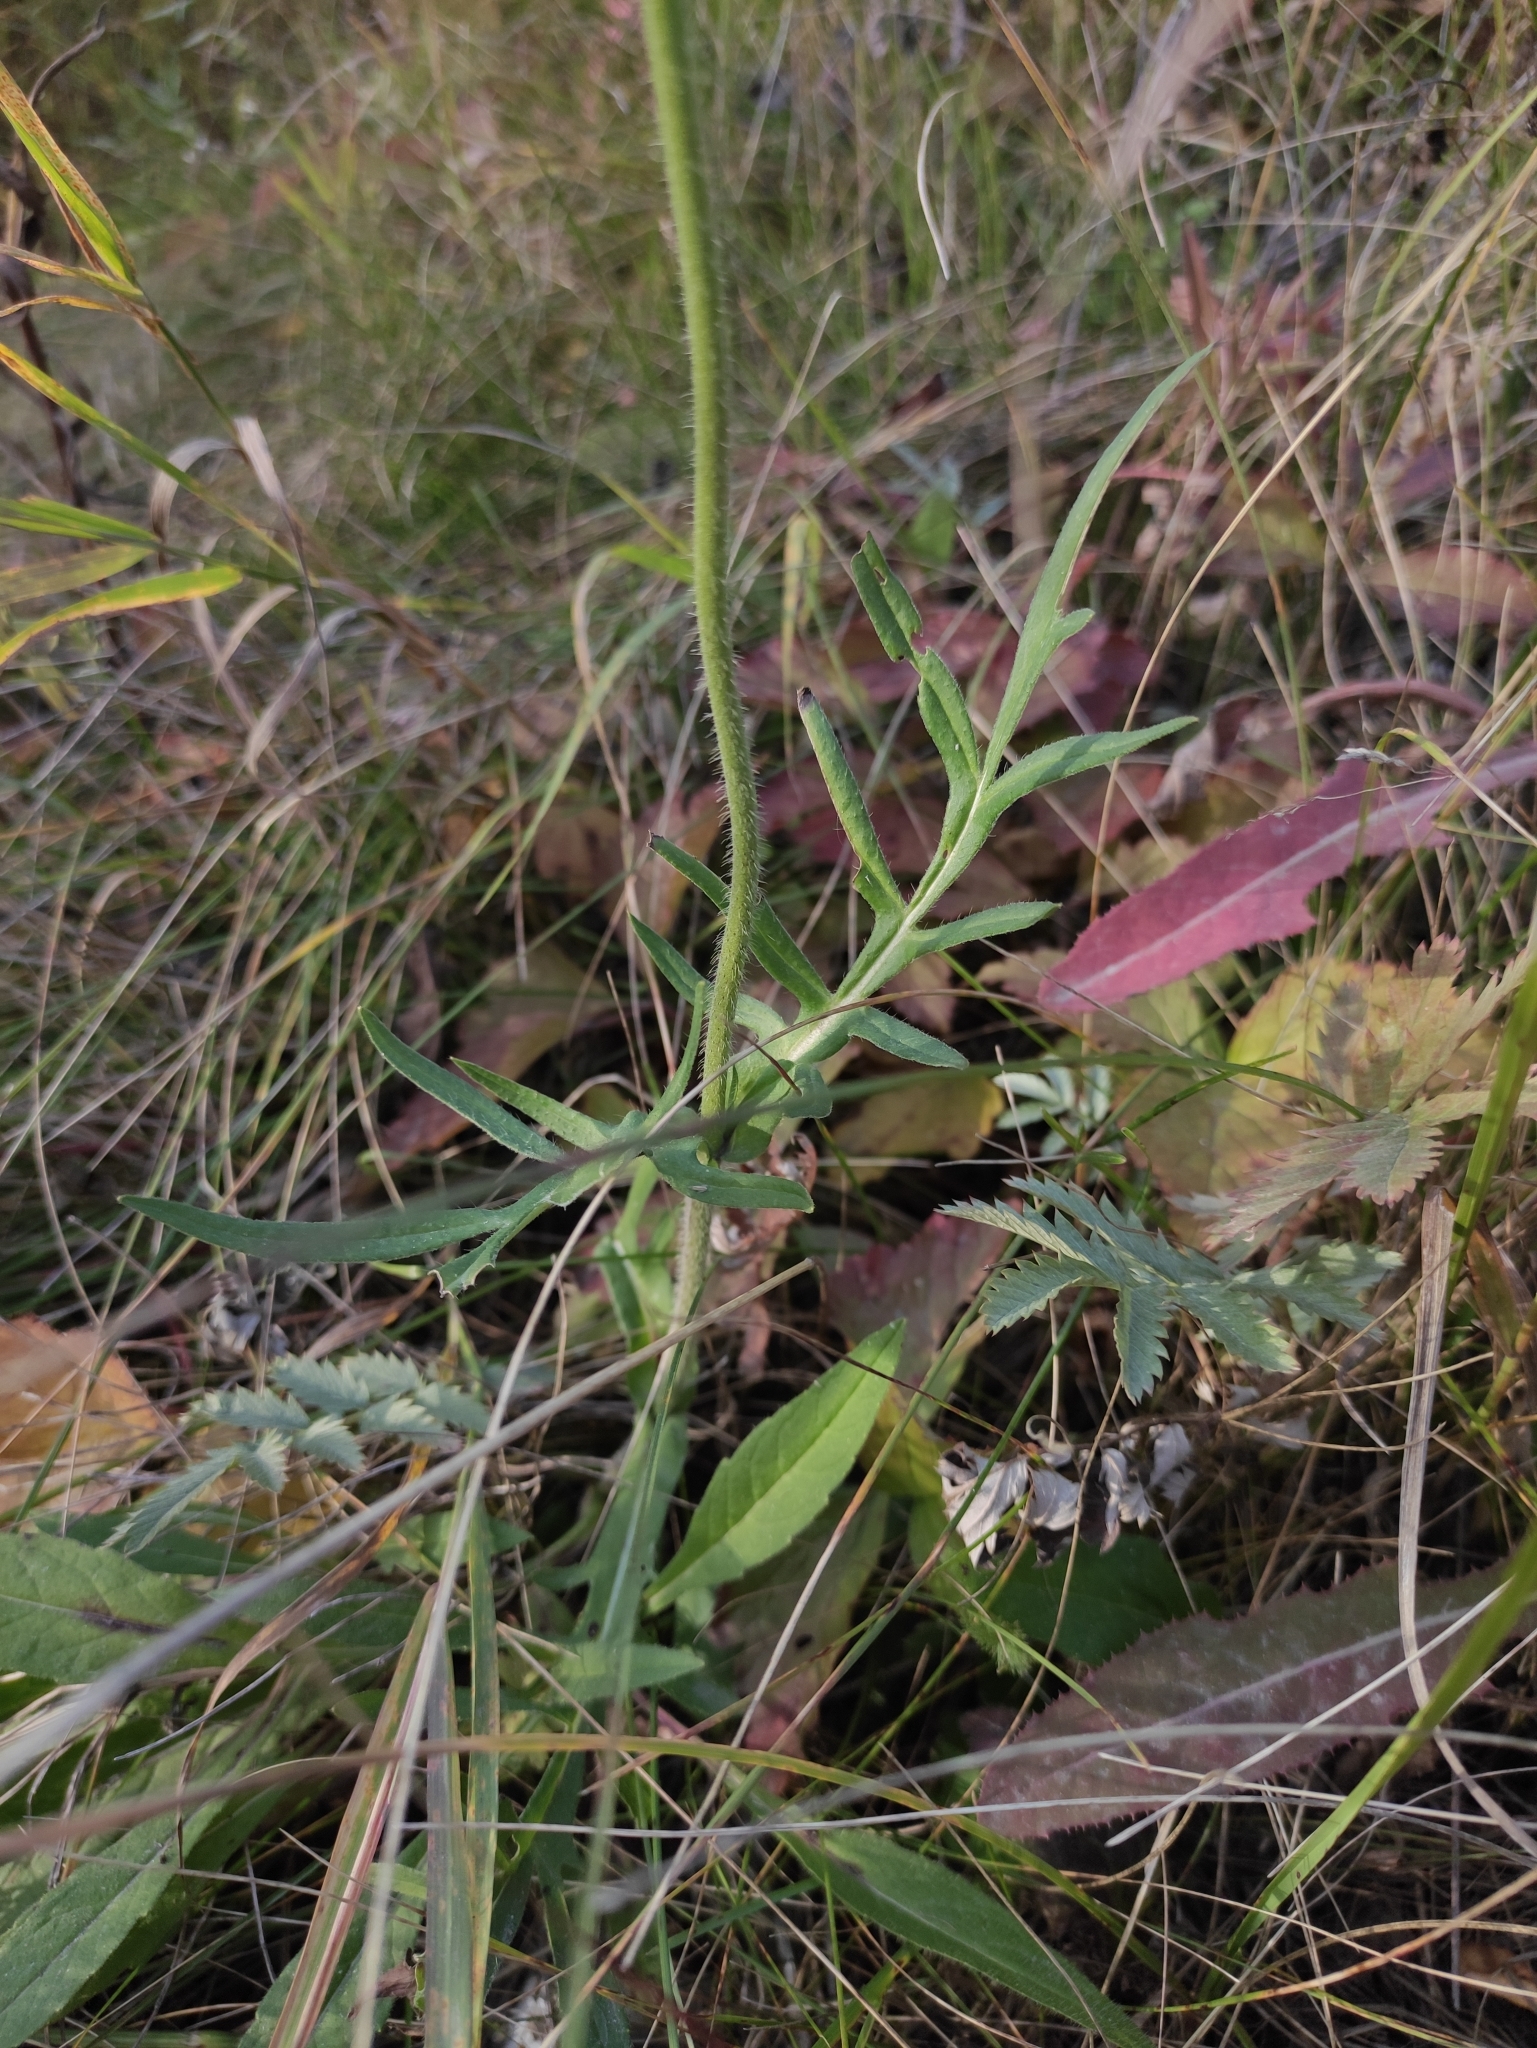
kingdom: Plantae
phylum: Tracheophyta
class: Magnoliopsida
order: Dipsacales
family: Caprifoliaceae
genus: Knautia
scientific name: Knautia arvensis
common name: Field scabiosa
